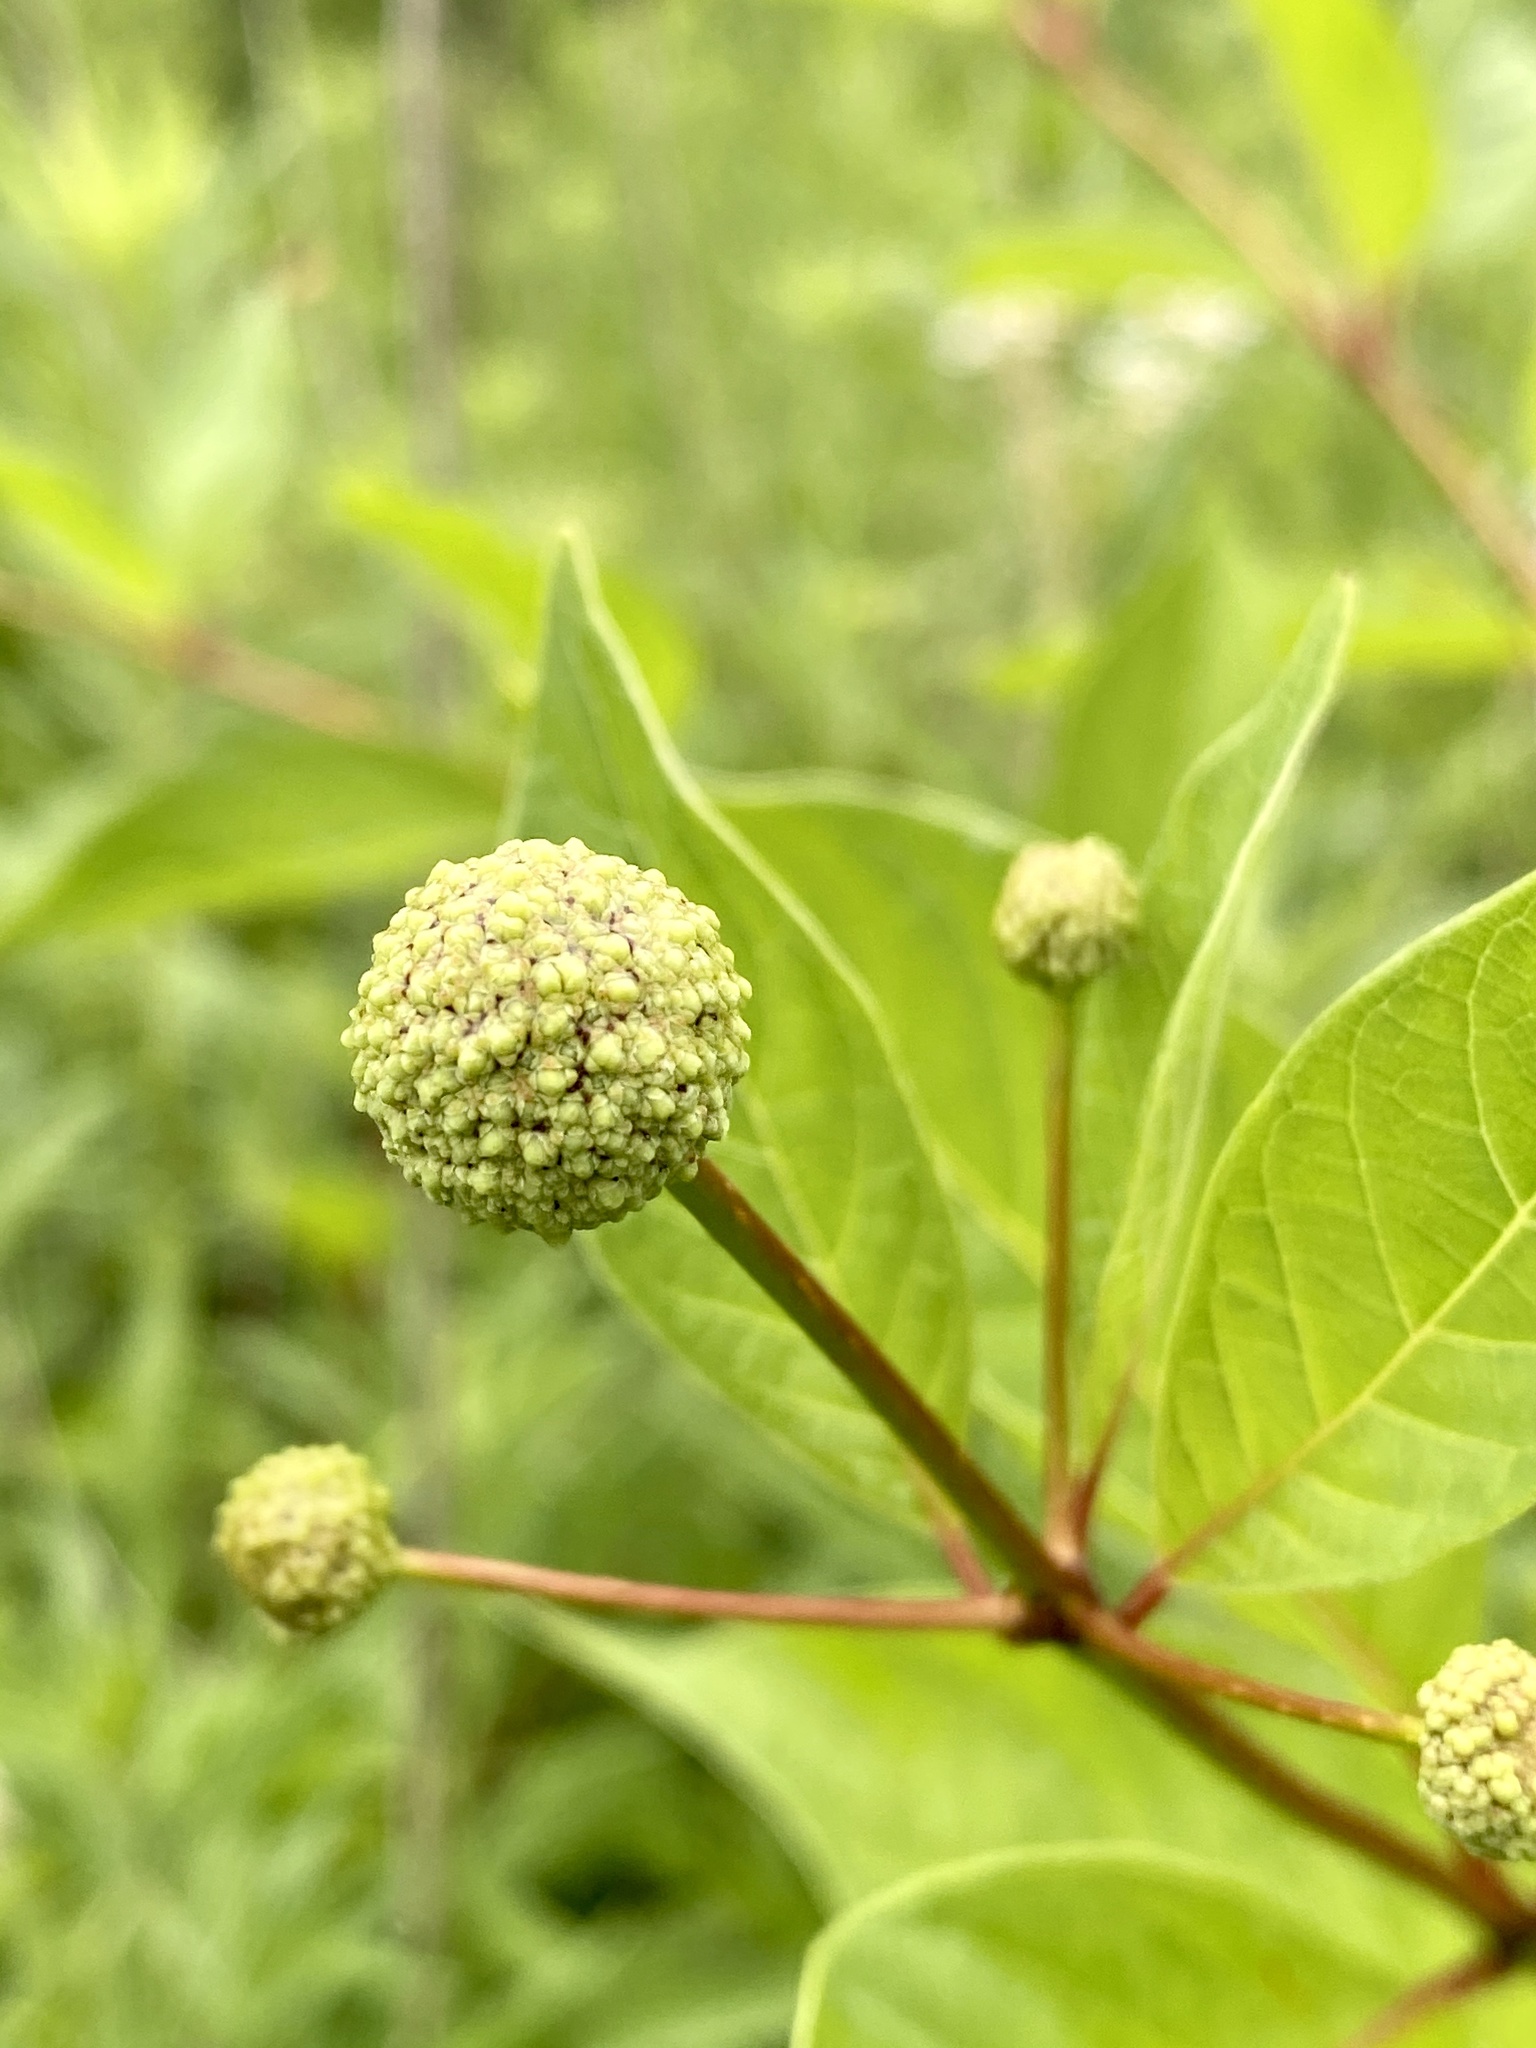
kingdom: Plantae
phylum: Tracheophyta
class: Magnoliopsida
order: Gentianales
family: Rubiaceae
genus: Cephalanthus
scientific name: Cephalanthus occidentalis
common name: Button-willow
